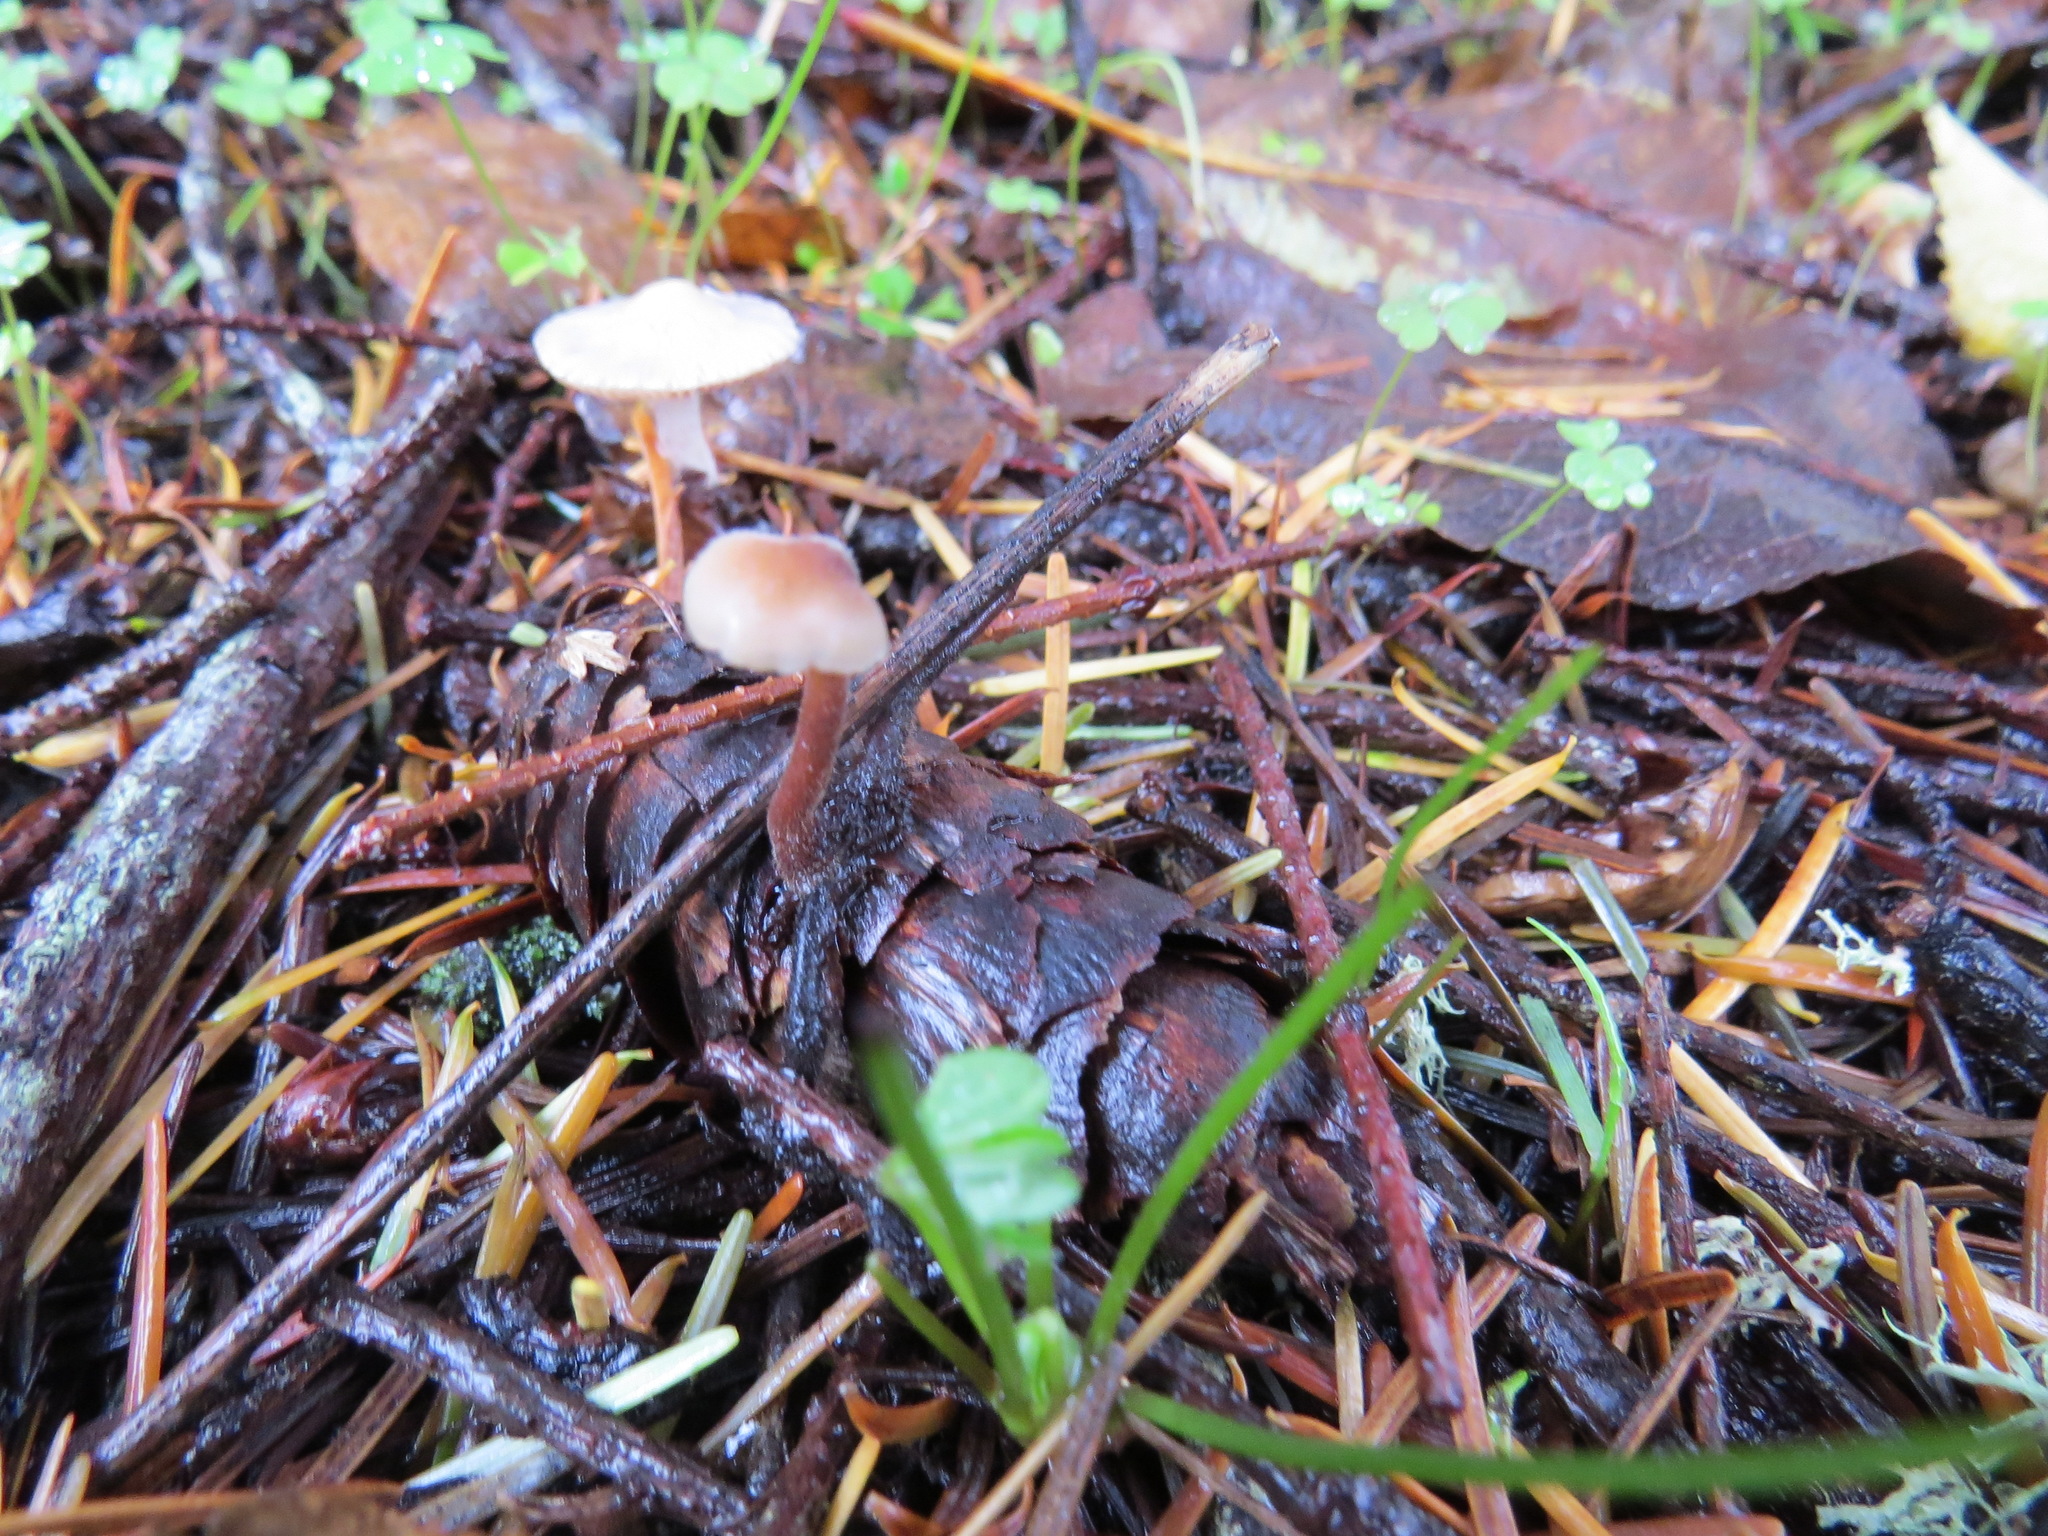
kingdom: Fungi
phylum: Basidiomycota
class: Agaricomycetes
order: Russulales
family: Auriscalpiaceae
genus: Auriscalpium
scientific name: Auriscalpium vulgare
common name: Earpick fungus
